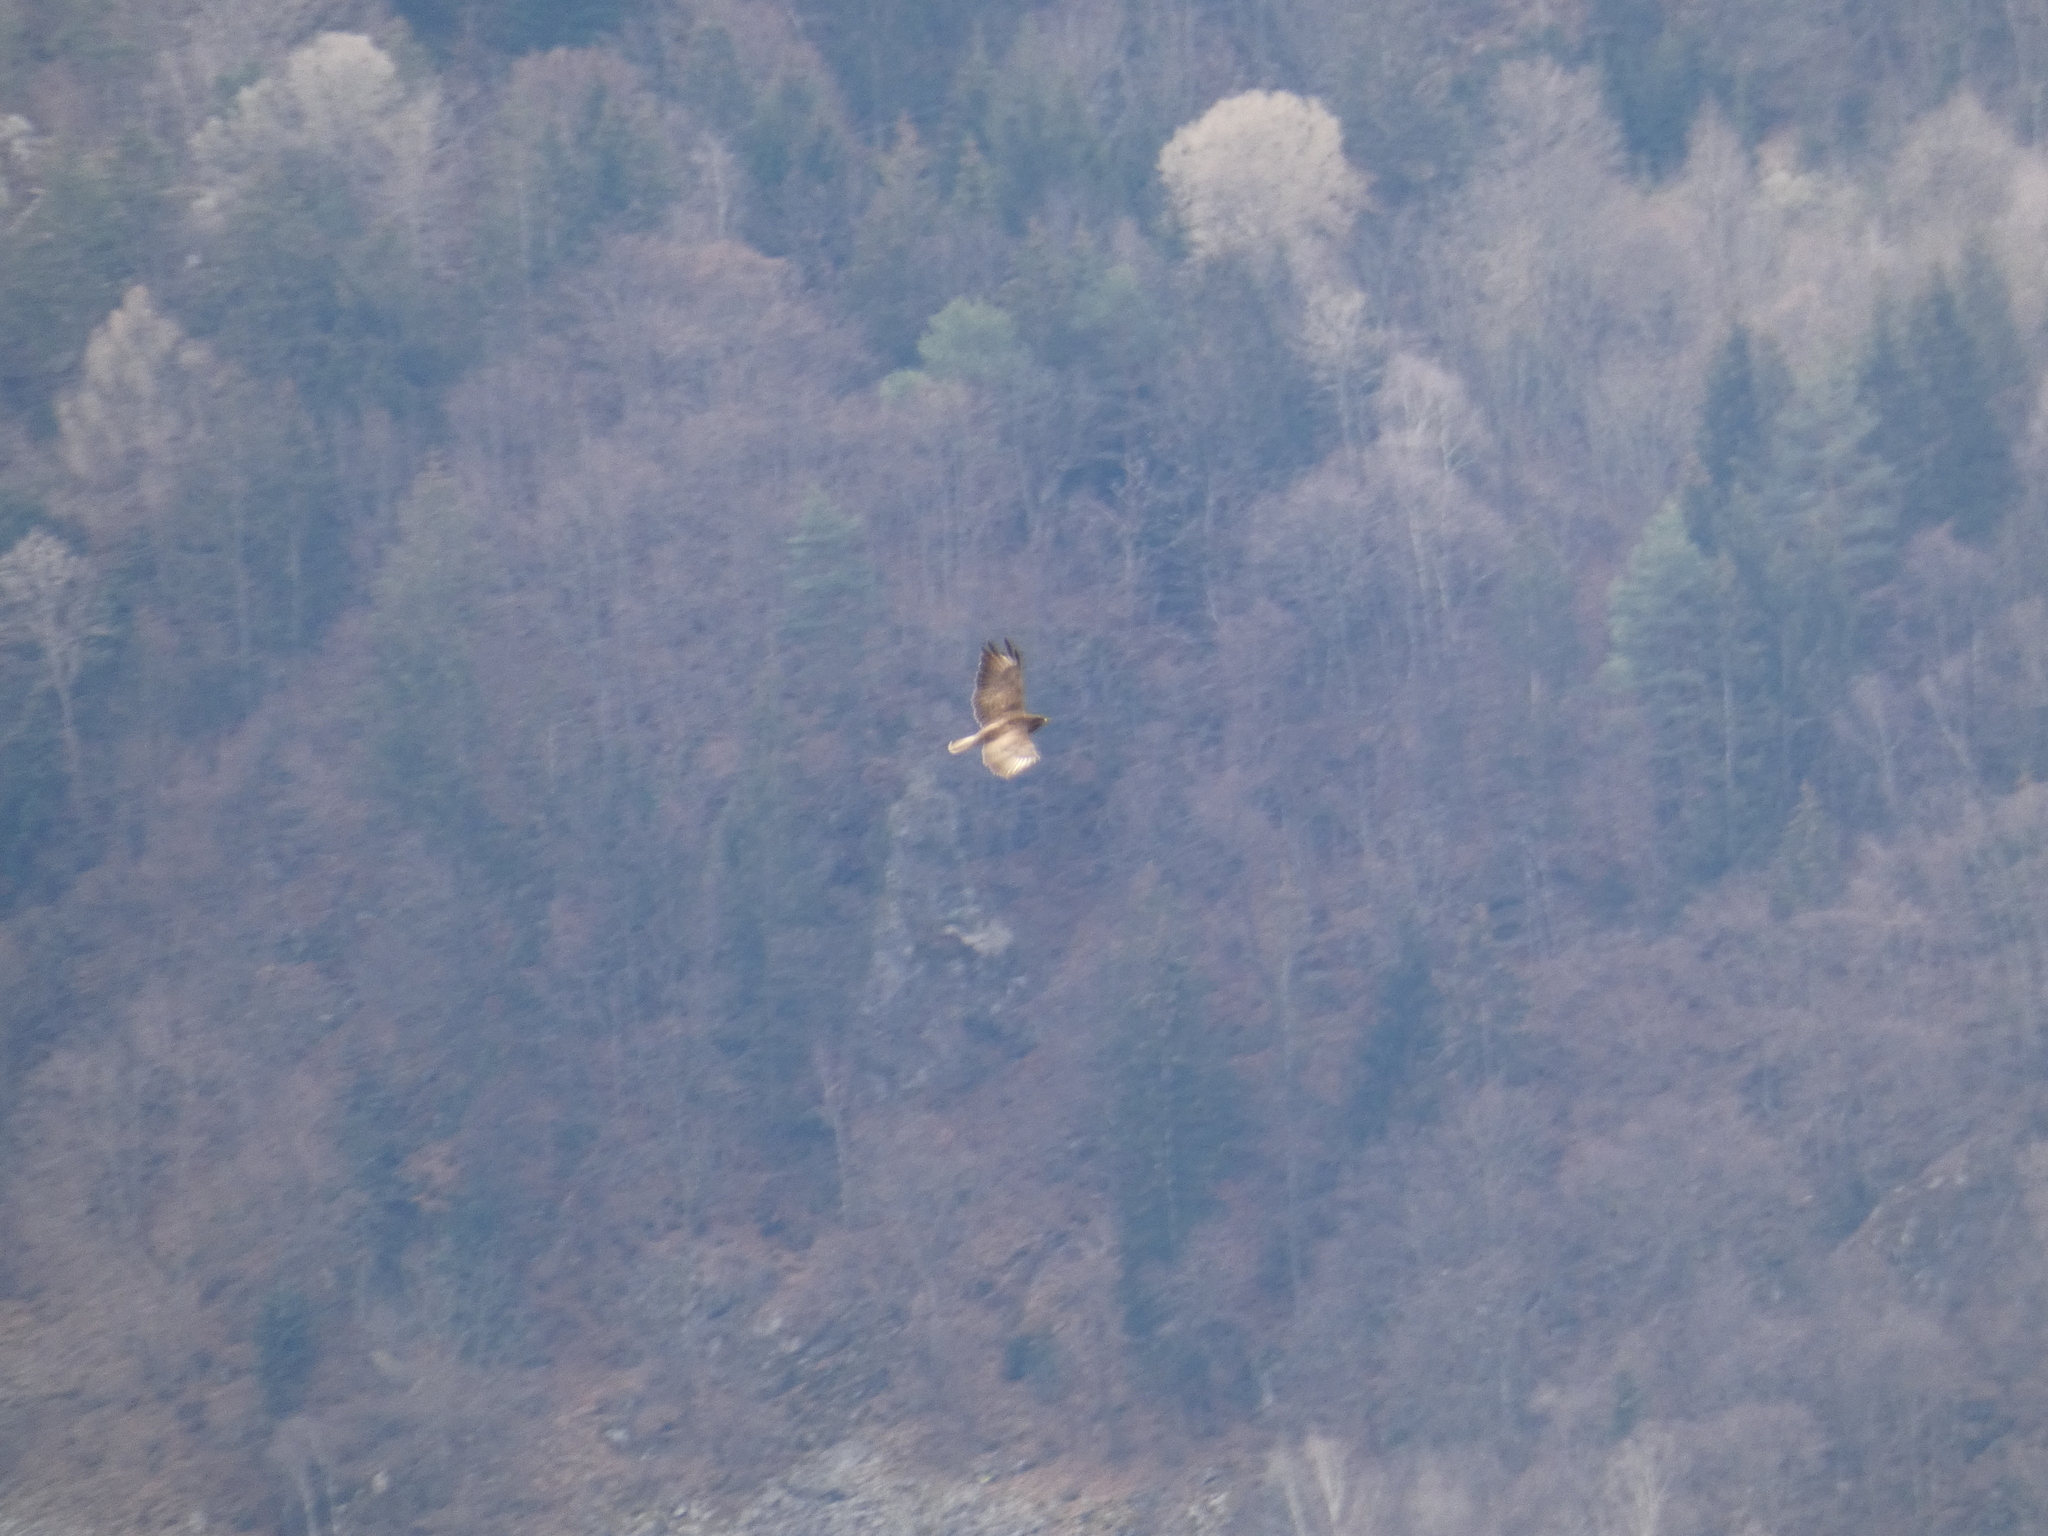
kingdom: Animalia
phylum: Chordata
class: Aves
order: Accipitriformes
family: Accipitridae
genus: Buteo
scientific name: Buteo buteo
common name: Common buzzard
